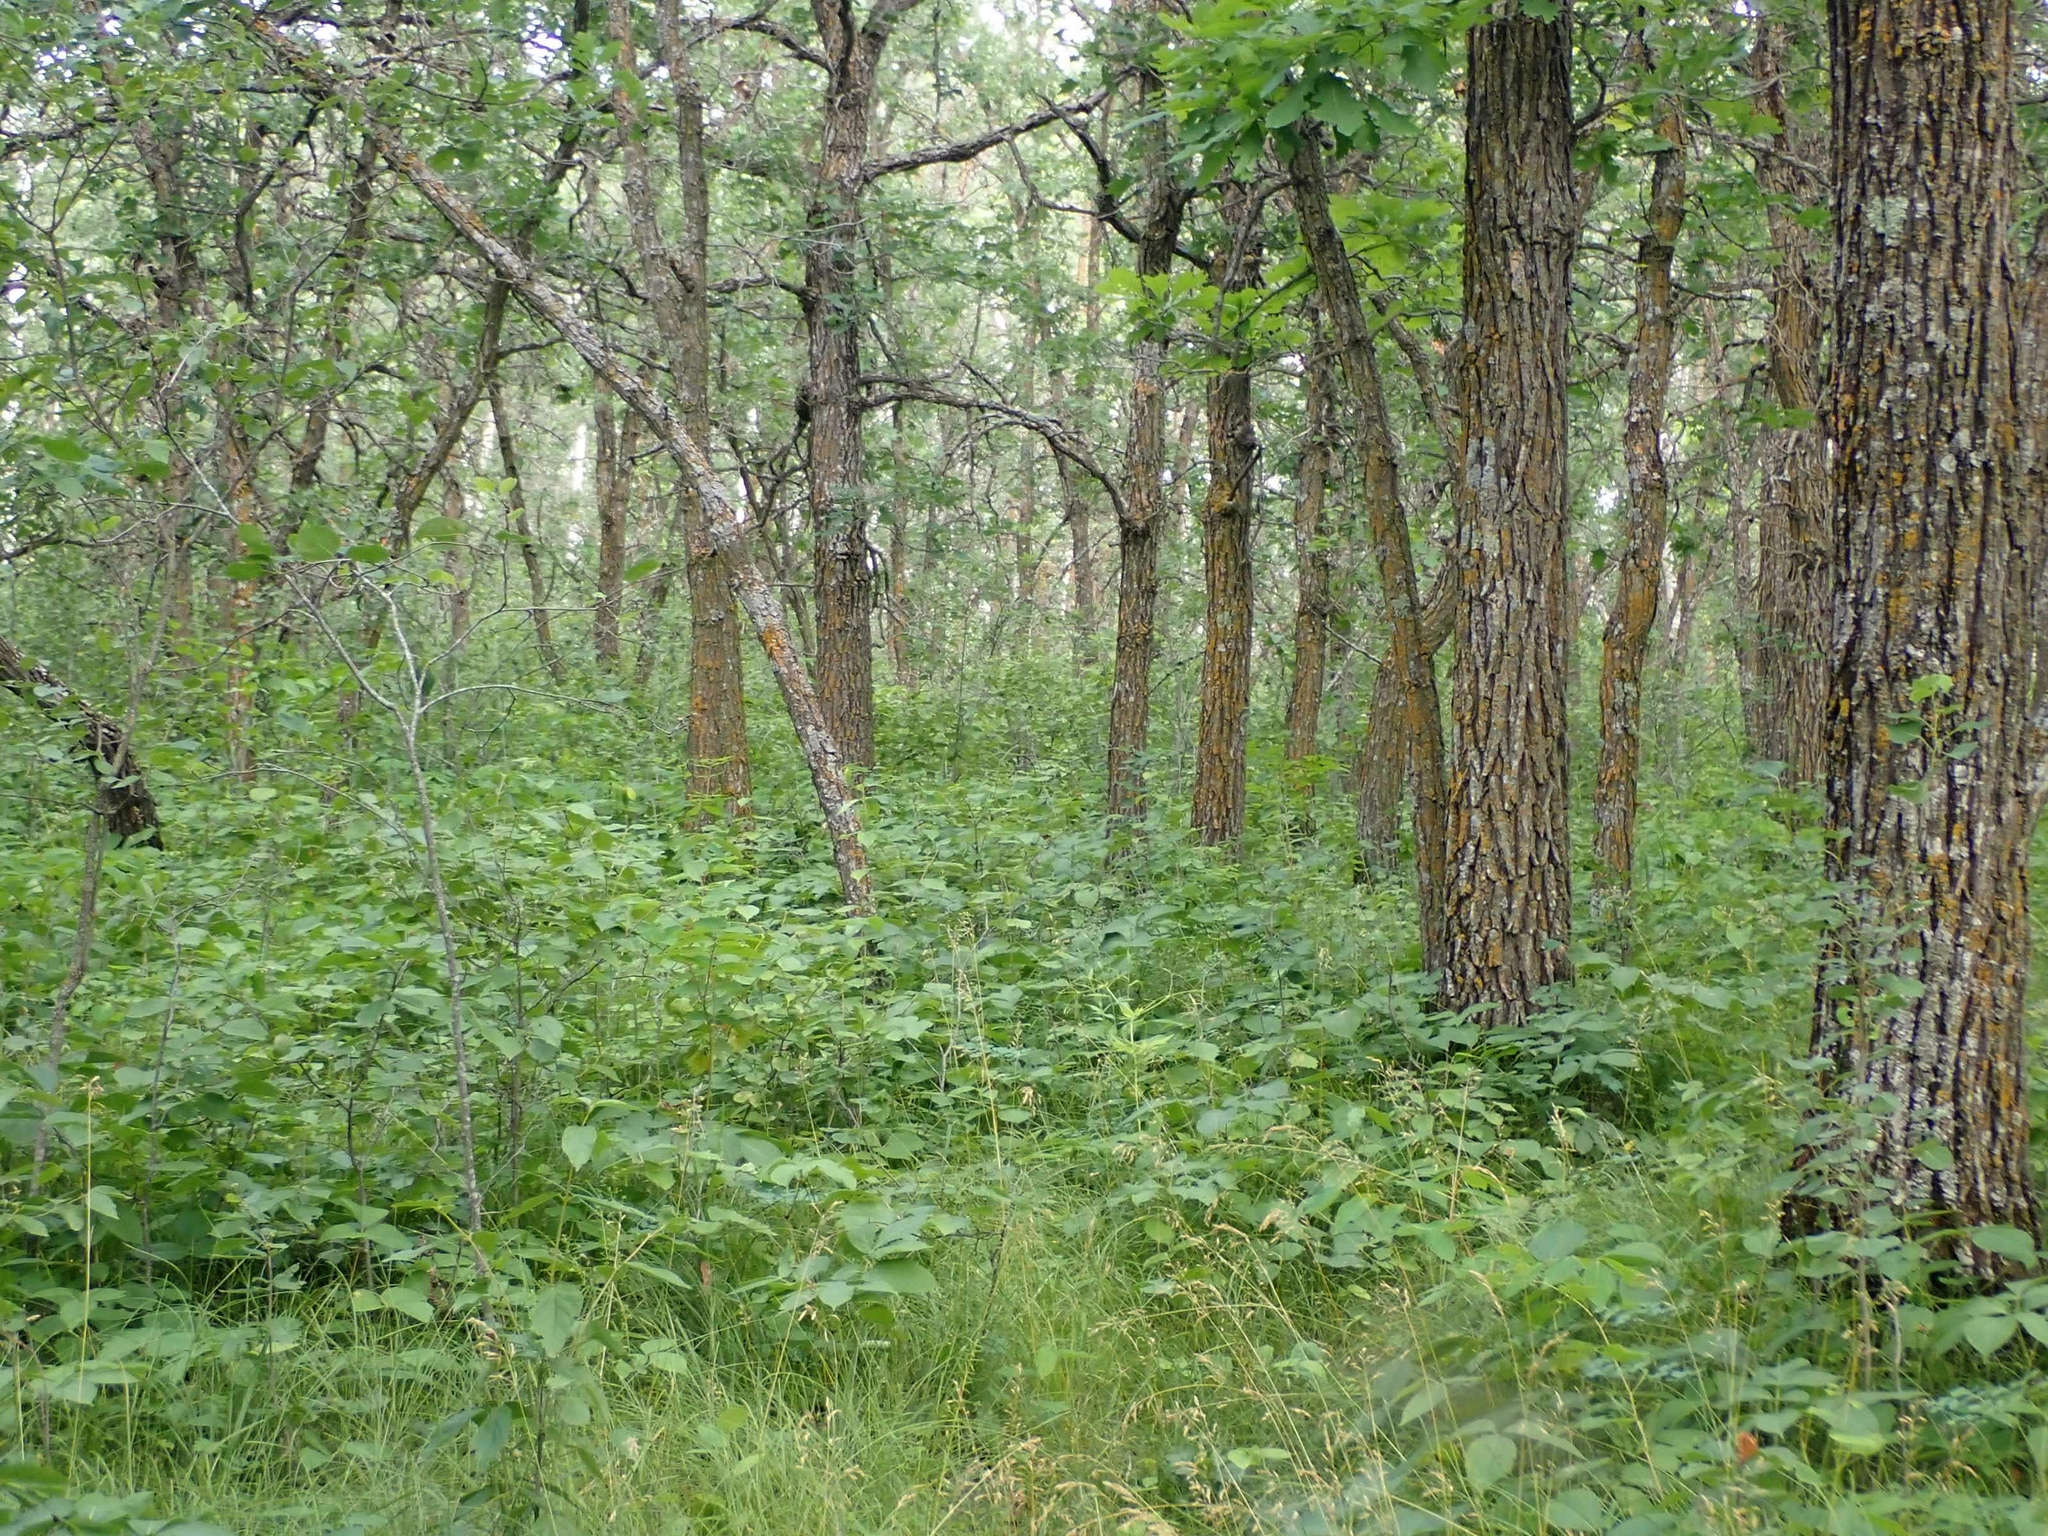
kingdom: Plantae
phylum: Tracheophyta
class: Magnoliopsida
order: Fagales
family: Fagaceae
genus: Quercus
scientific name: Quercus macrocarpa
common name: Bur oak
